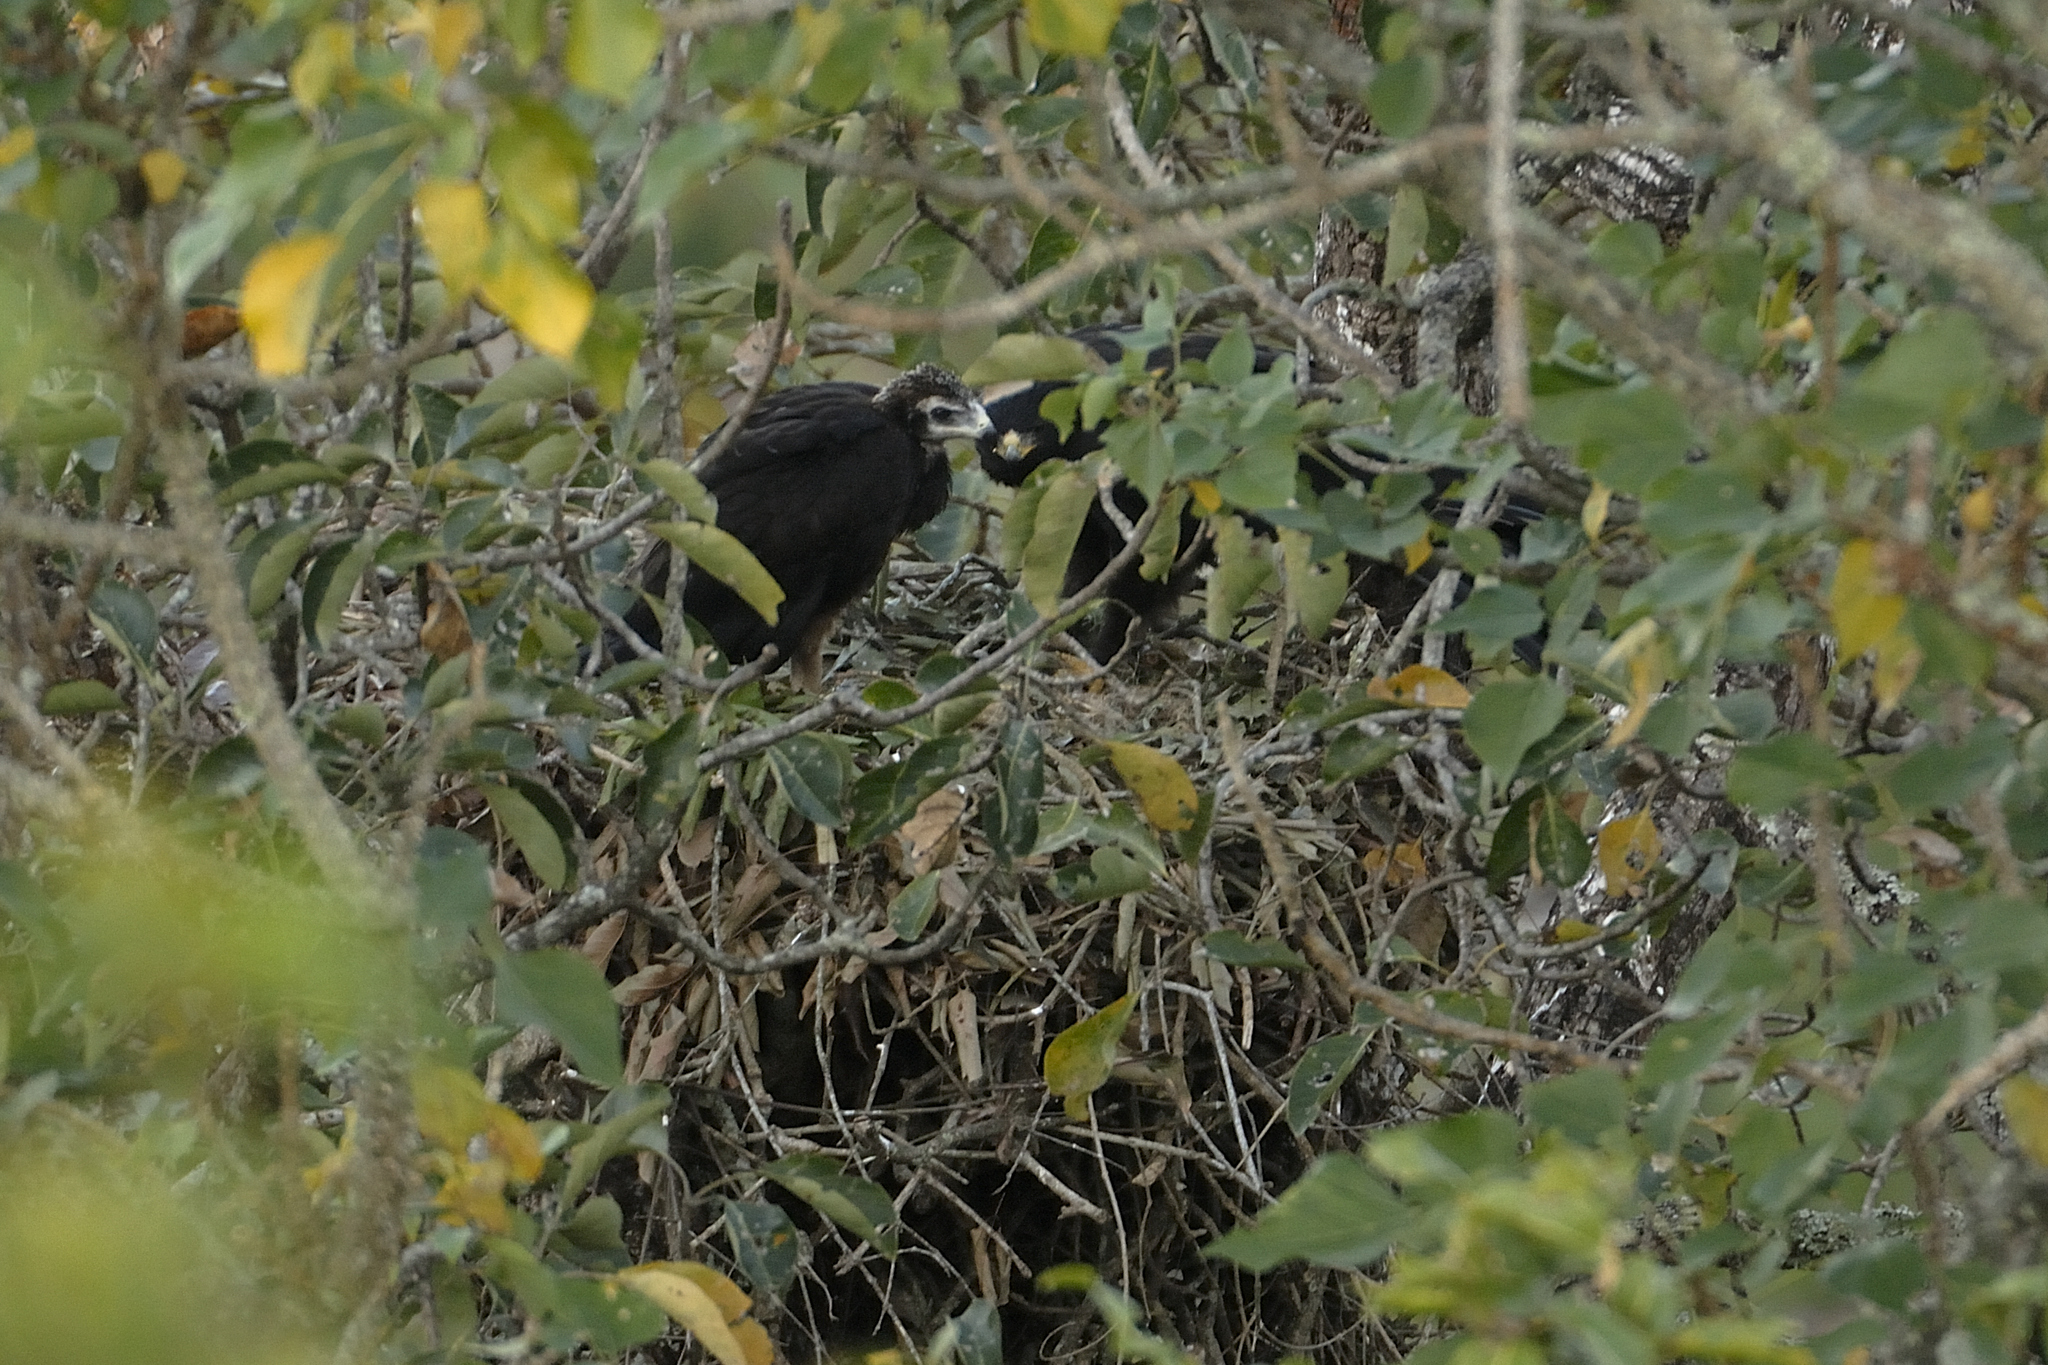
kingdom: Animalia
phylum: Chordata
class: Aves
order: Accipitriformes
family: Accipitridae
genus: Ictinaetus
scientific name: Ictinaetus malayensis
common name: Black eagle
